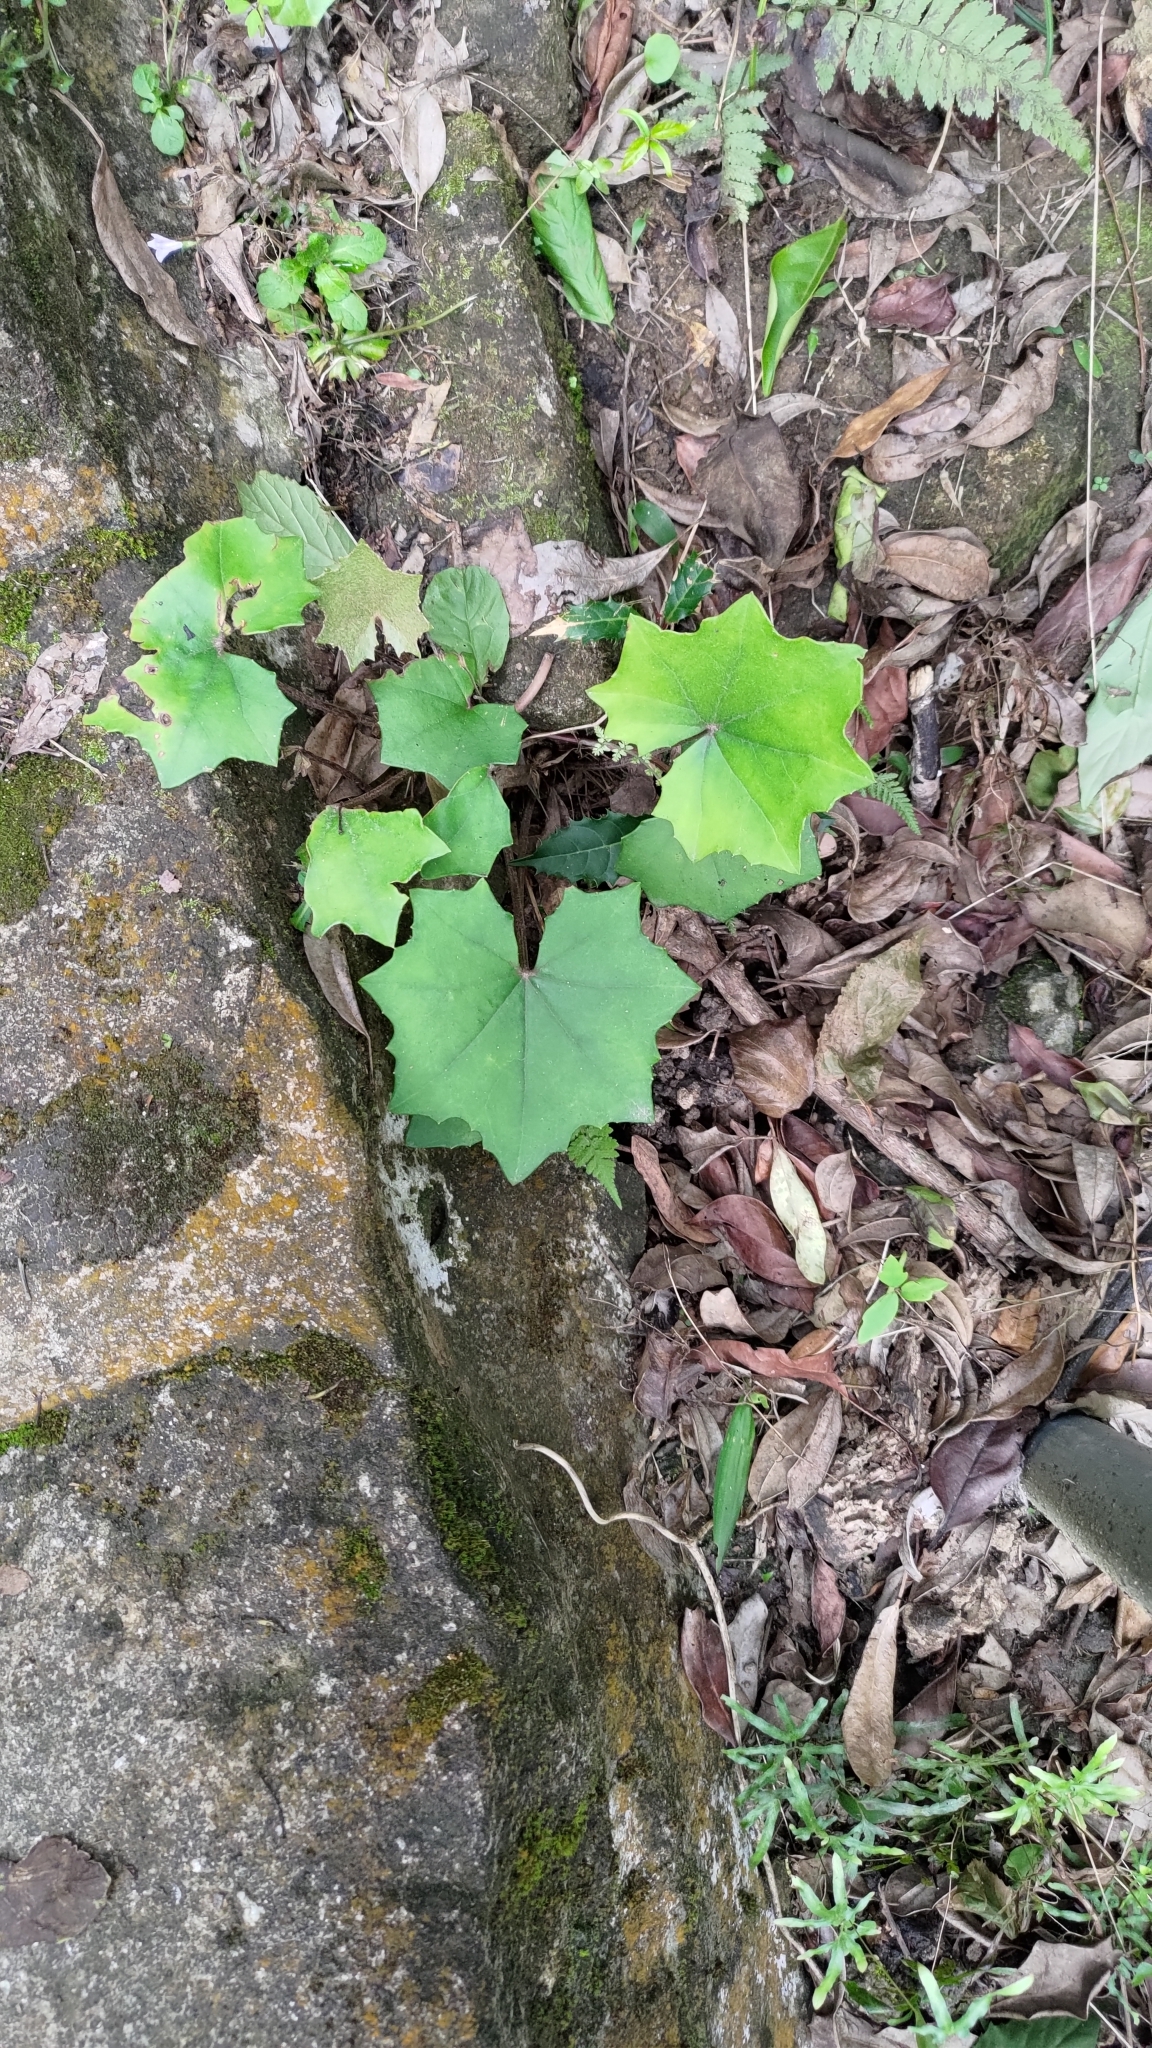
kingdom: Plantae
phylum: Tracheophyta
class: Magnoliopsida
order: Asterales
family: Asteraceae
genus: Farfugium
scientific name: Farfugium japonicum
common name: Leopardplant
